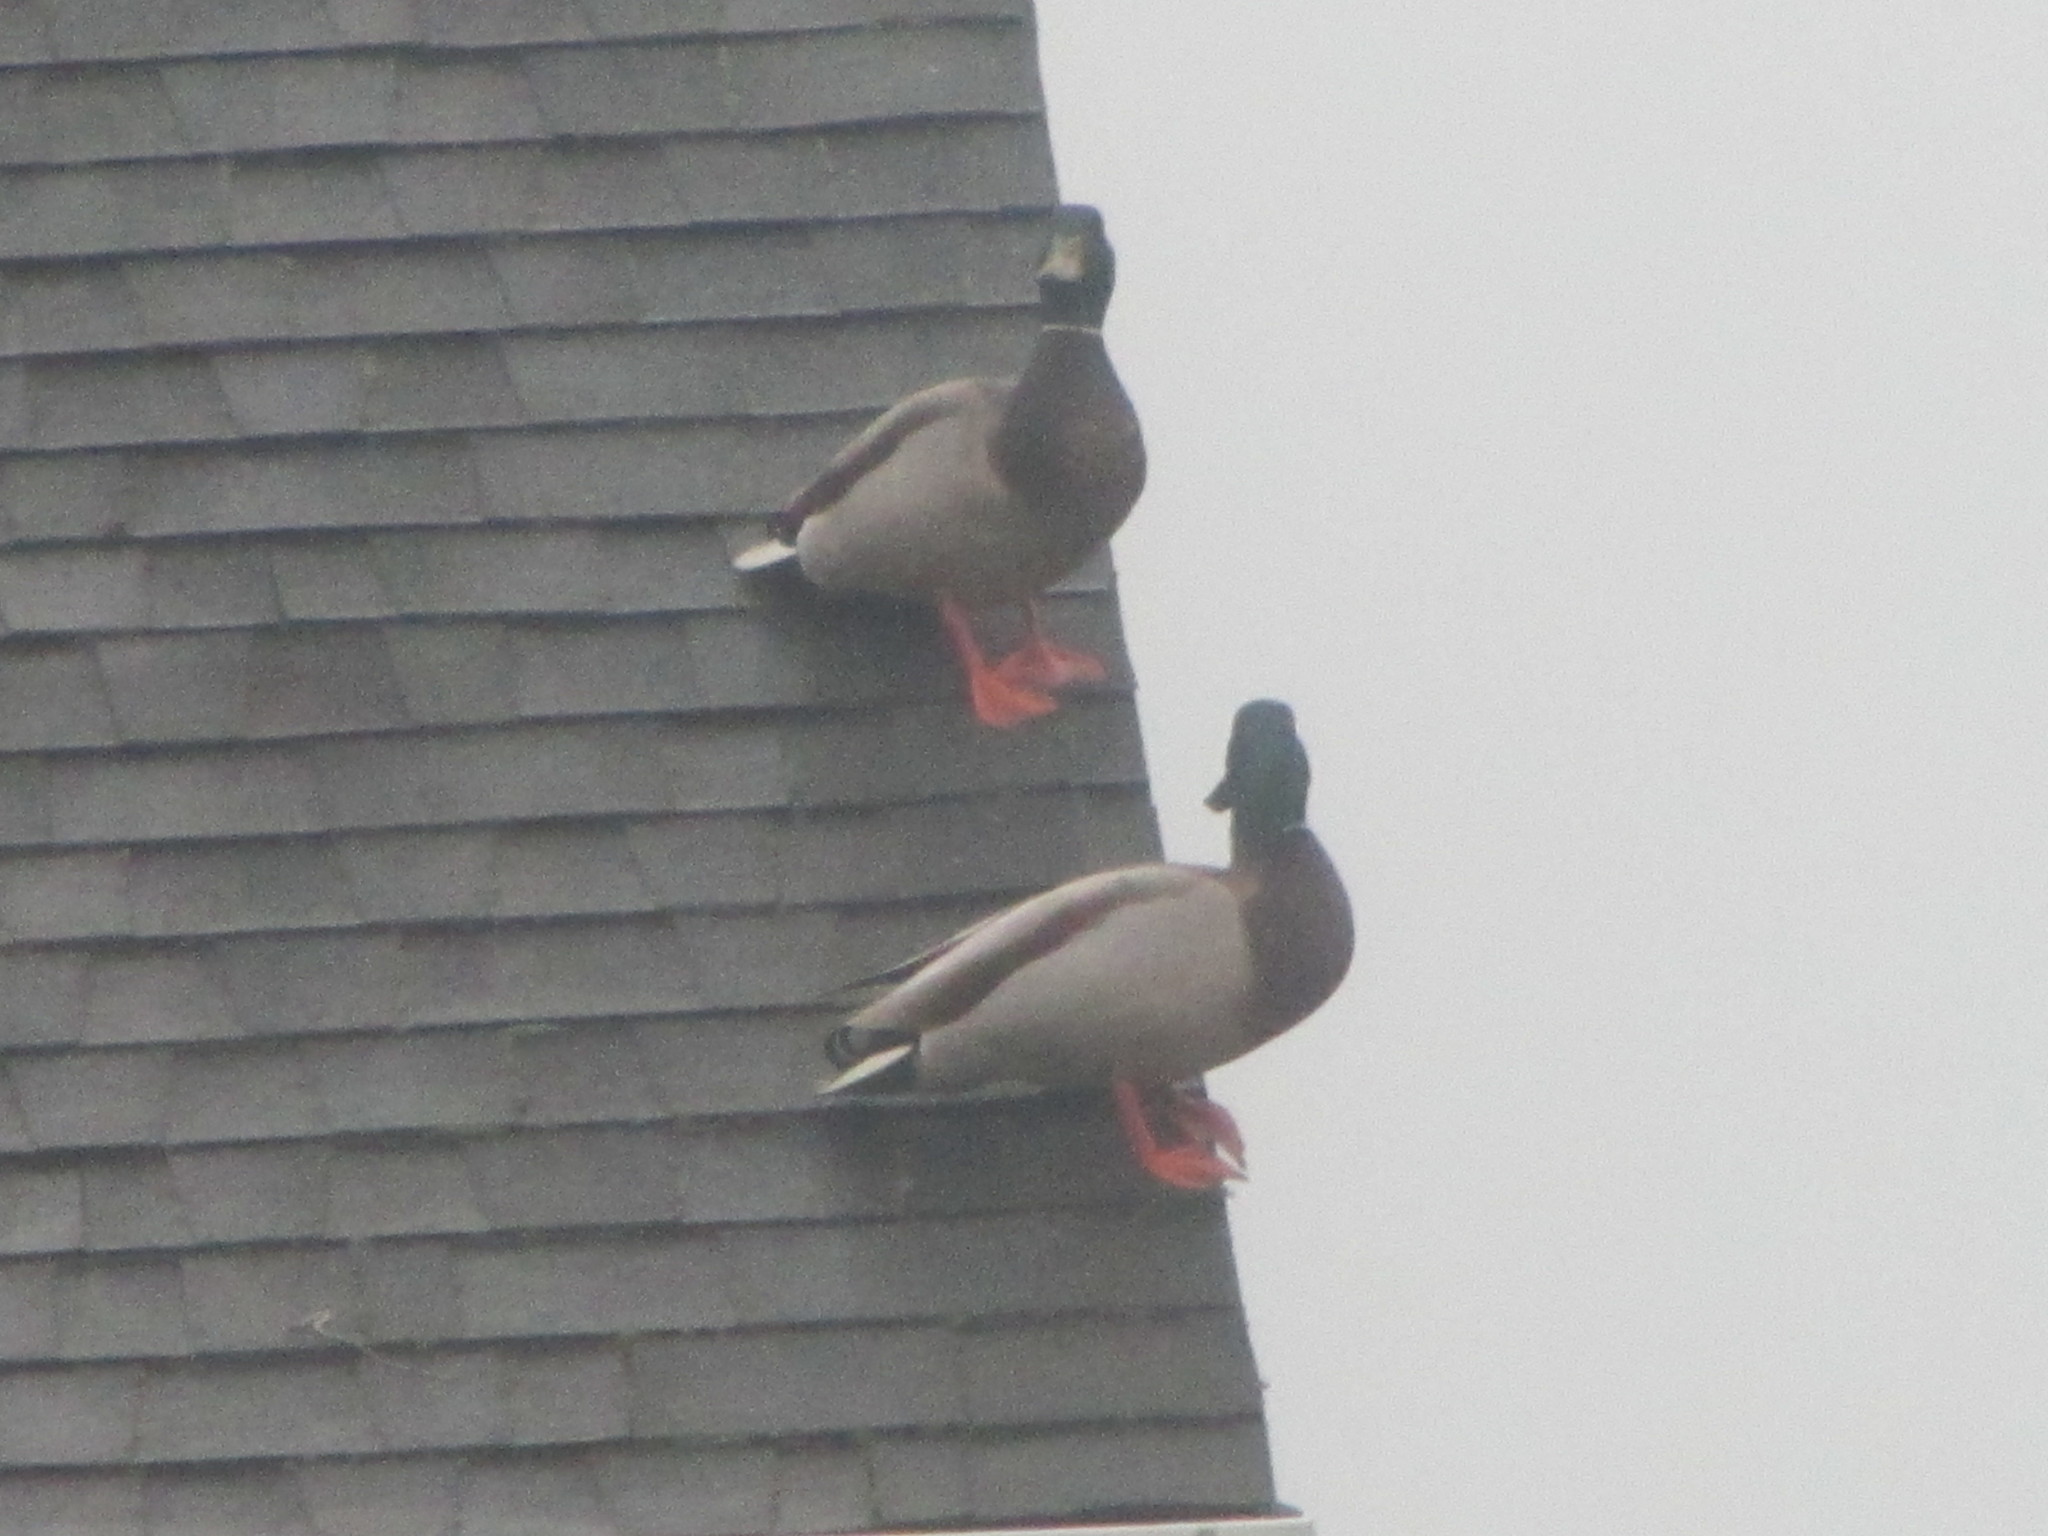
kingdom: Animalia
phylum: Chordata
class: Aves
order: Anseriformes
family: Anatidae
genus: Anas
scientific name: Anas platyrhynchos
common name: Mallard
